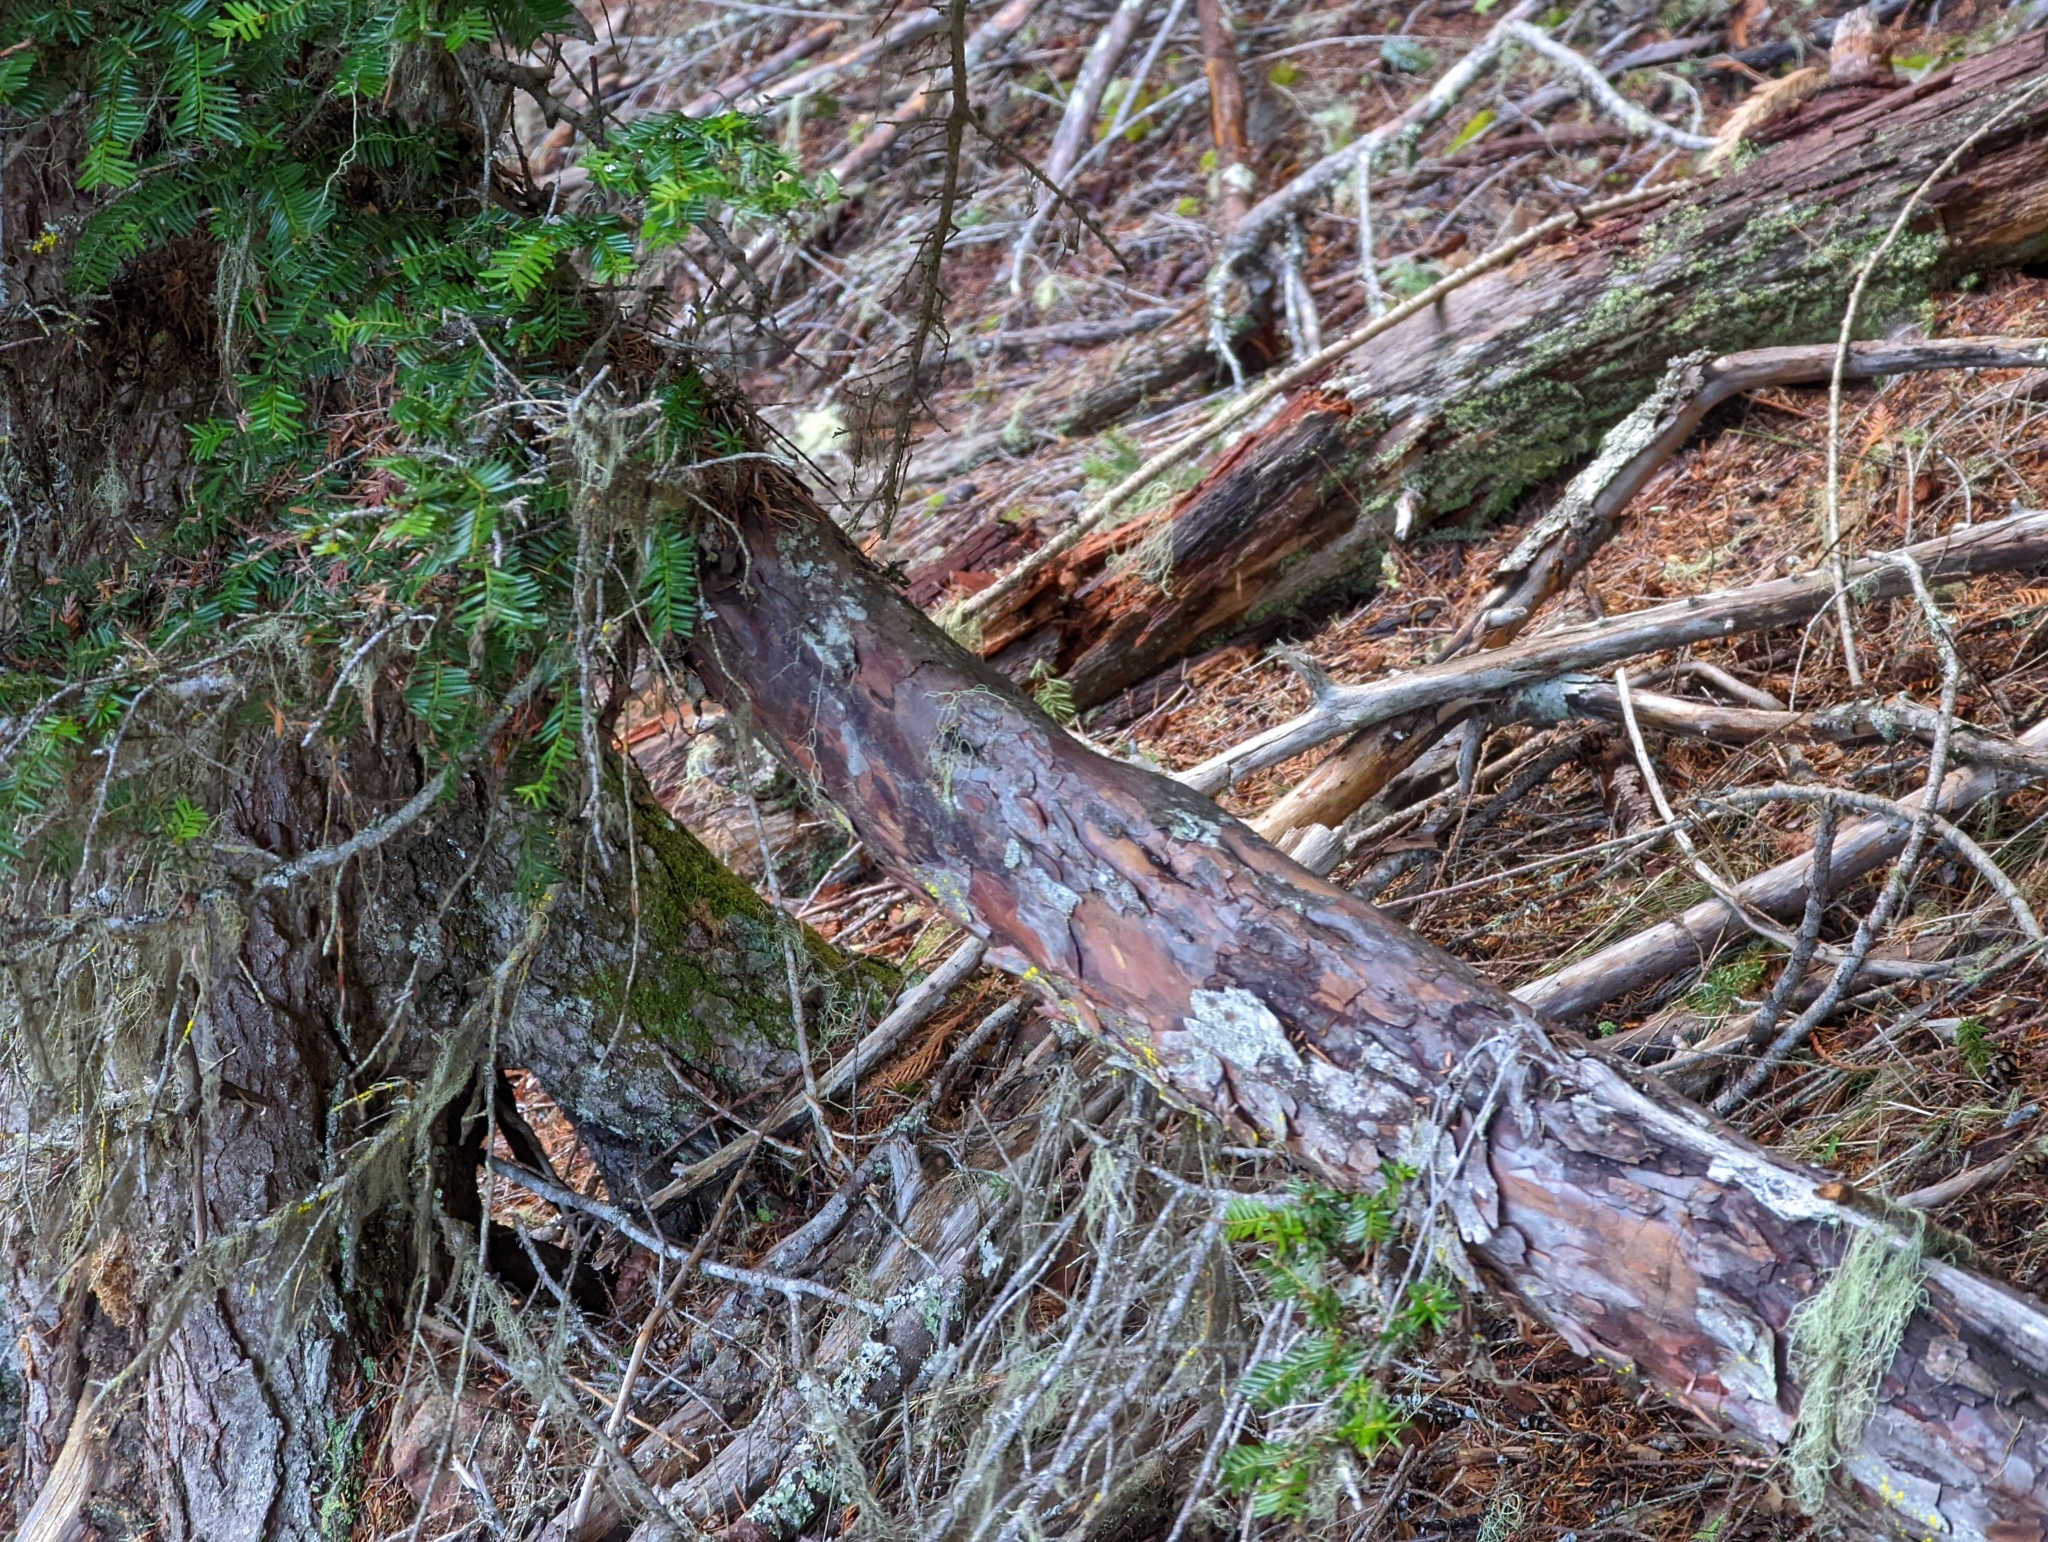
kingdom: Plantae
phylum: Tracheophyta
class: Pinopsida
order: Pinales
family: Taxaceae
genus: Taxus
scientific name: Taxus brevifolia
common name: Pacific yew
